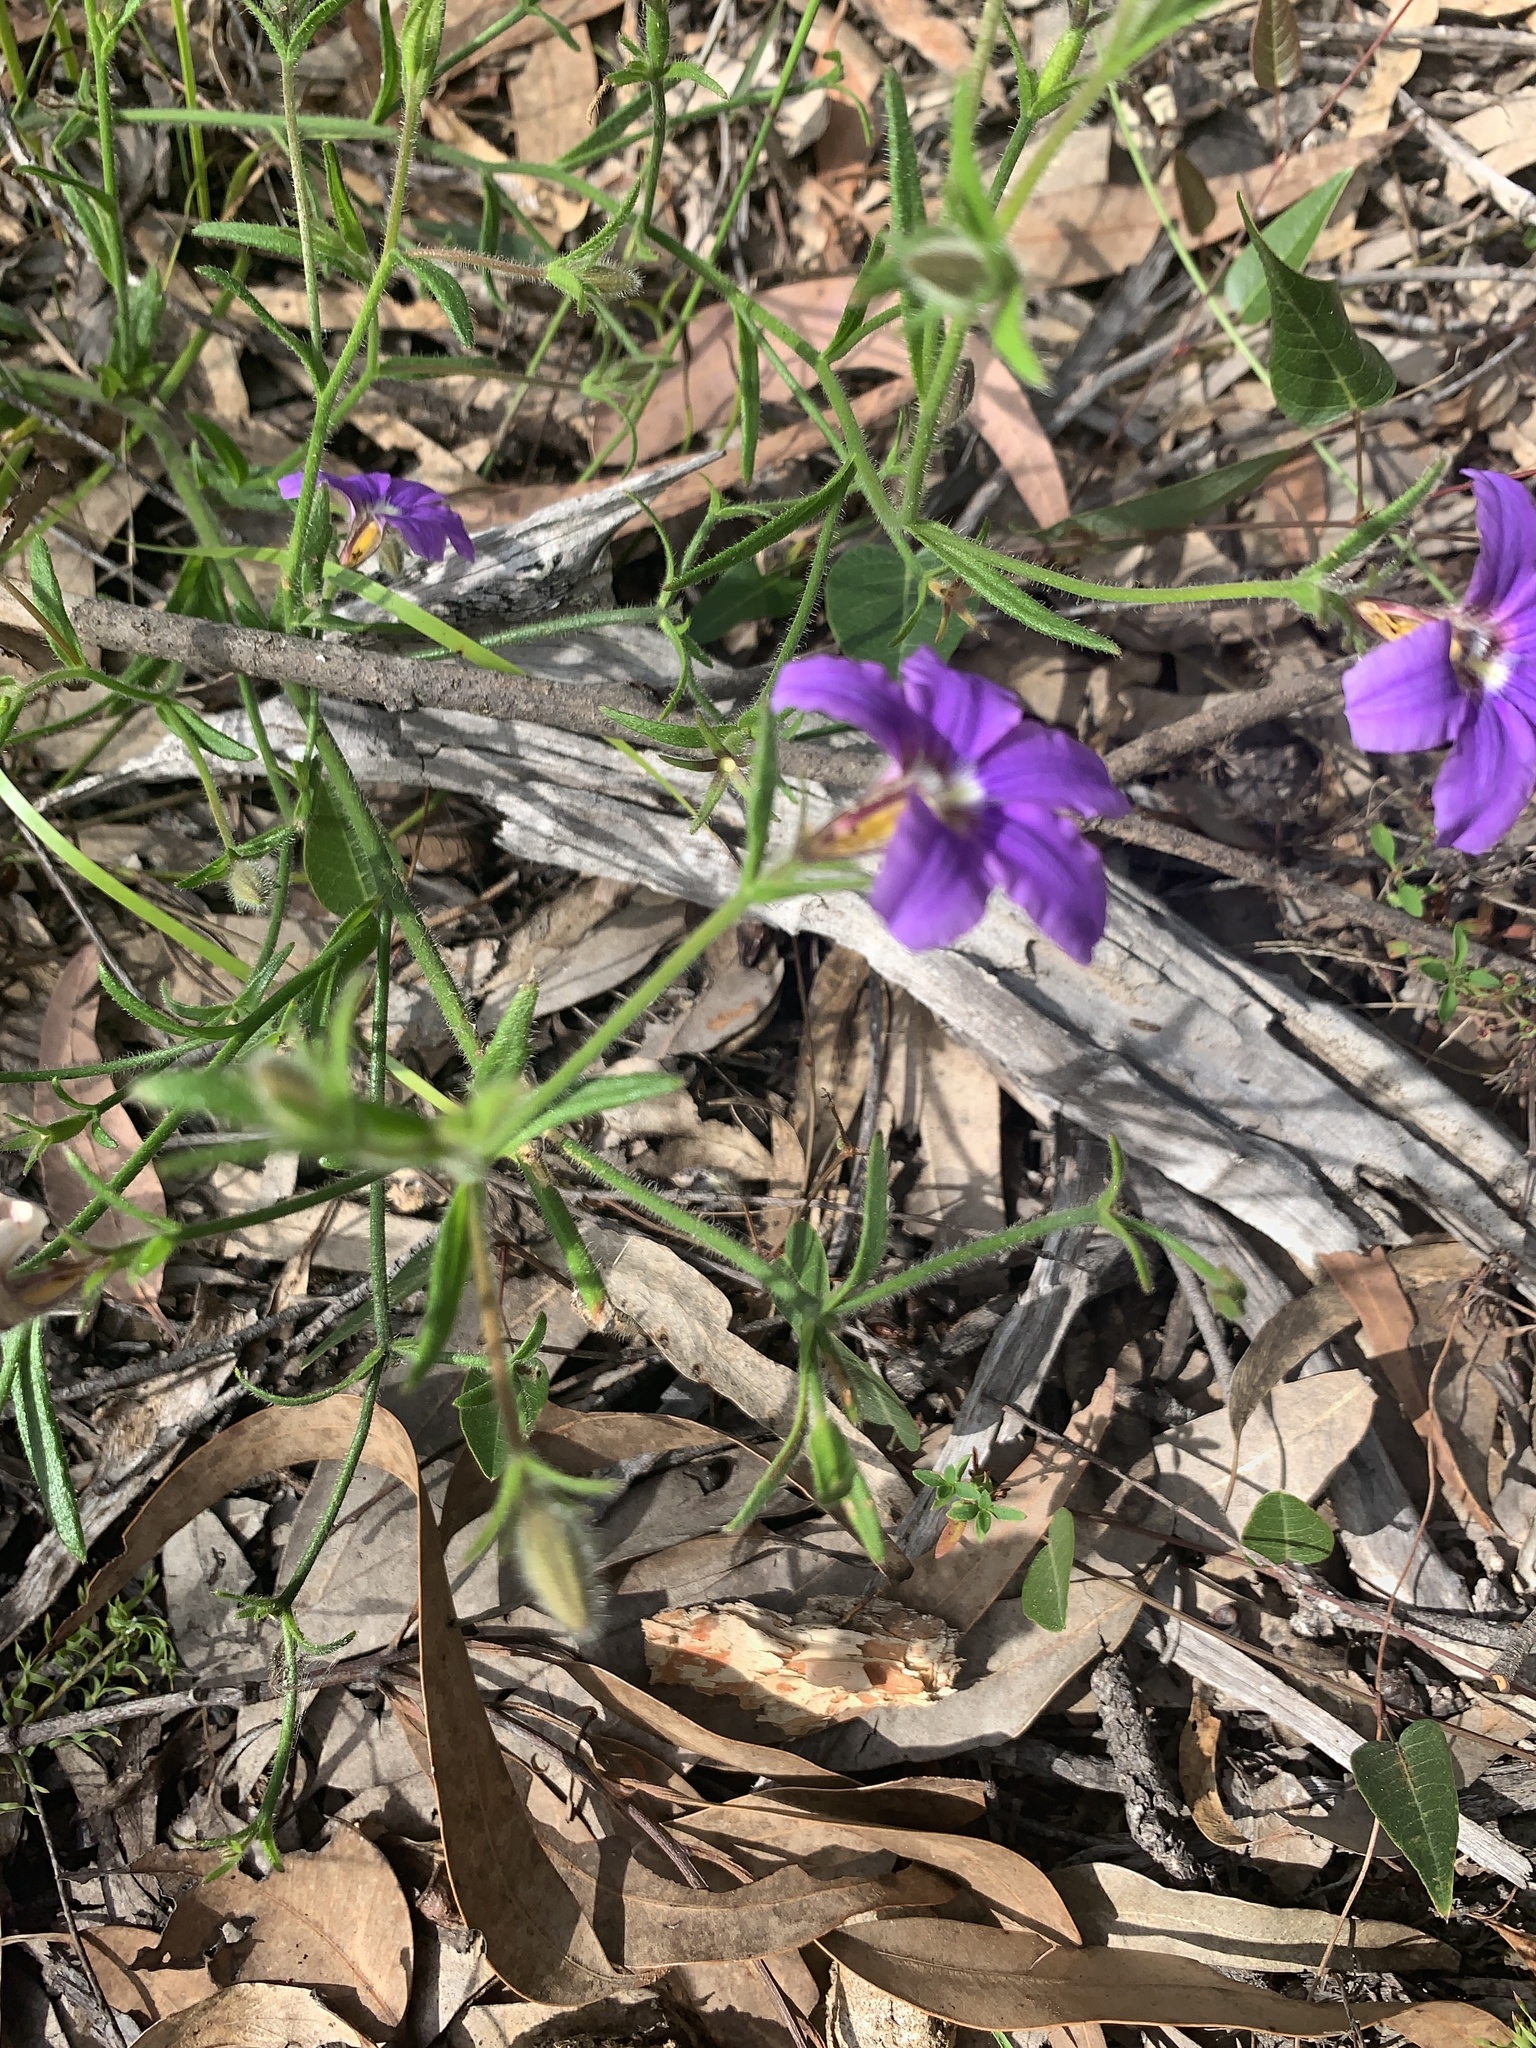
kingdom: Plantae
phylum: Tracheophyta
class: Magnoliopsida
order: Asterales
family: Goodeniaceae
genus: Scaevola
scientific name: Scaevola ramosissima
